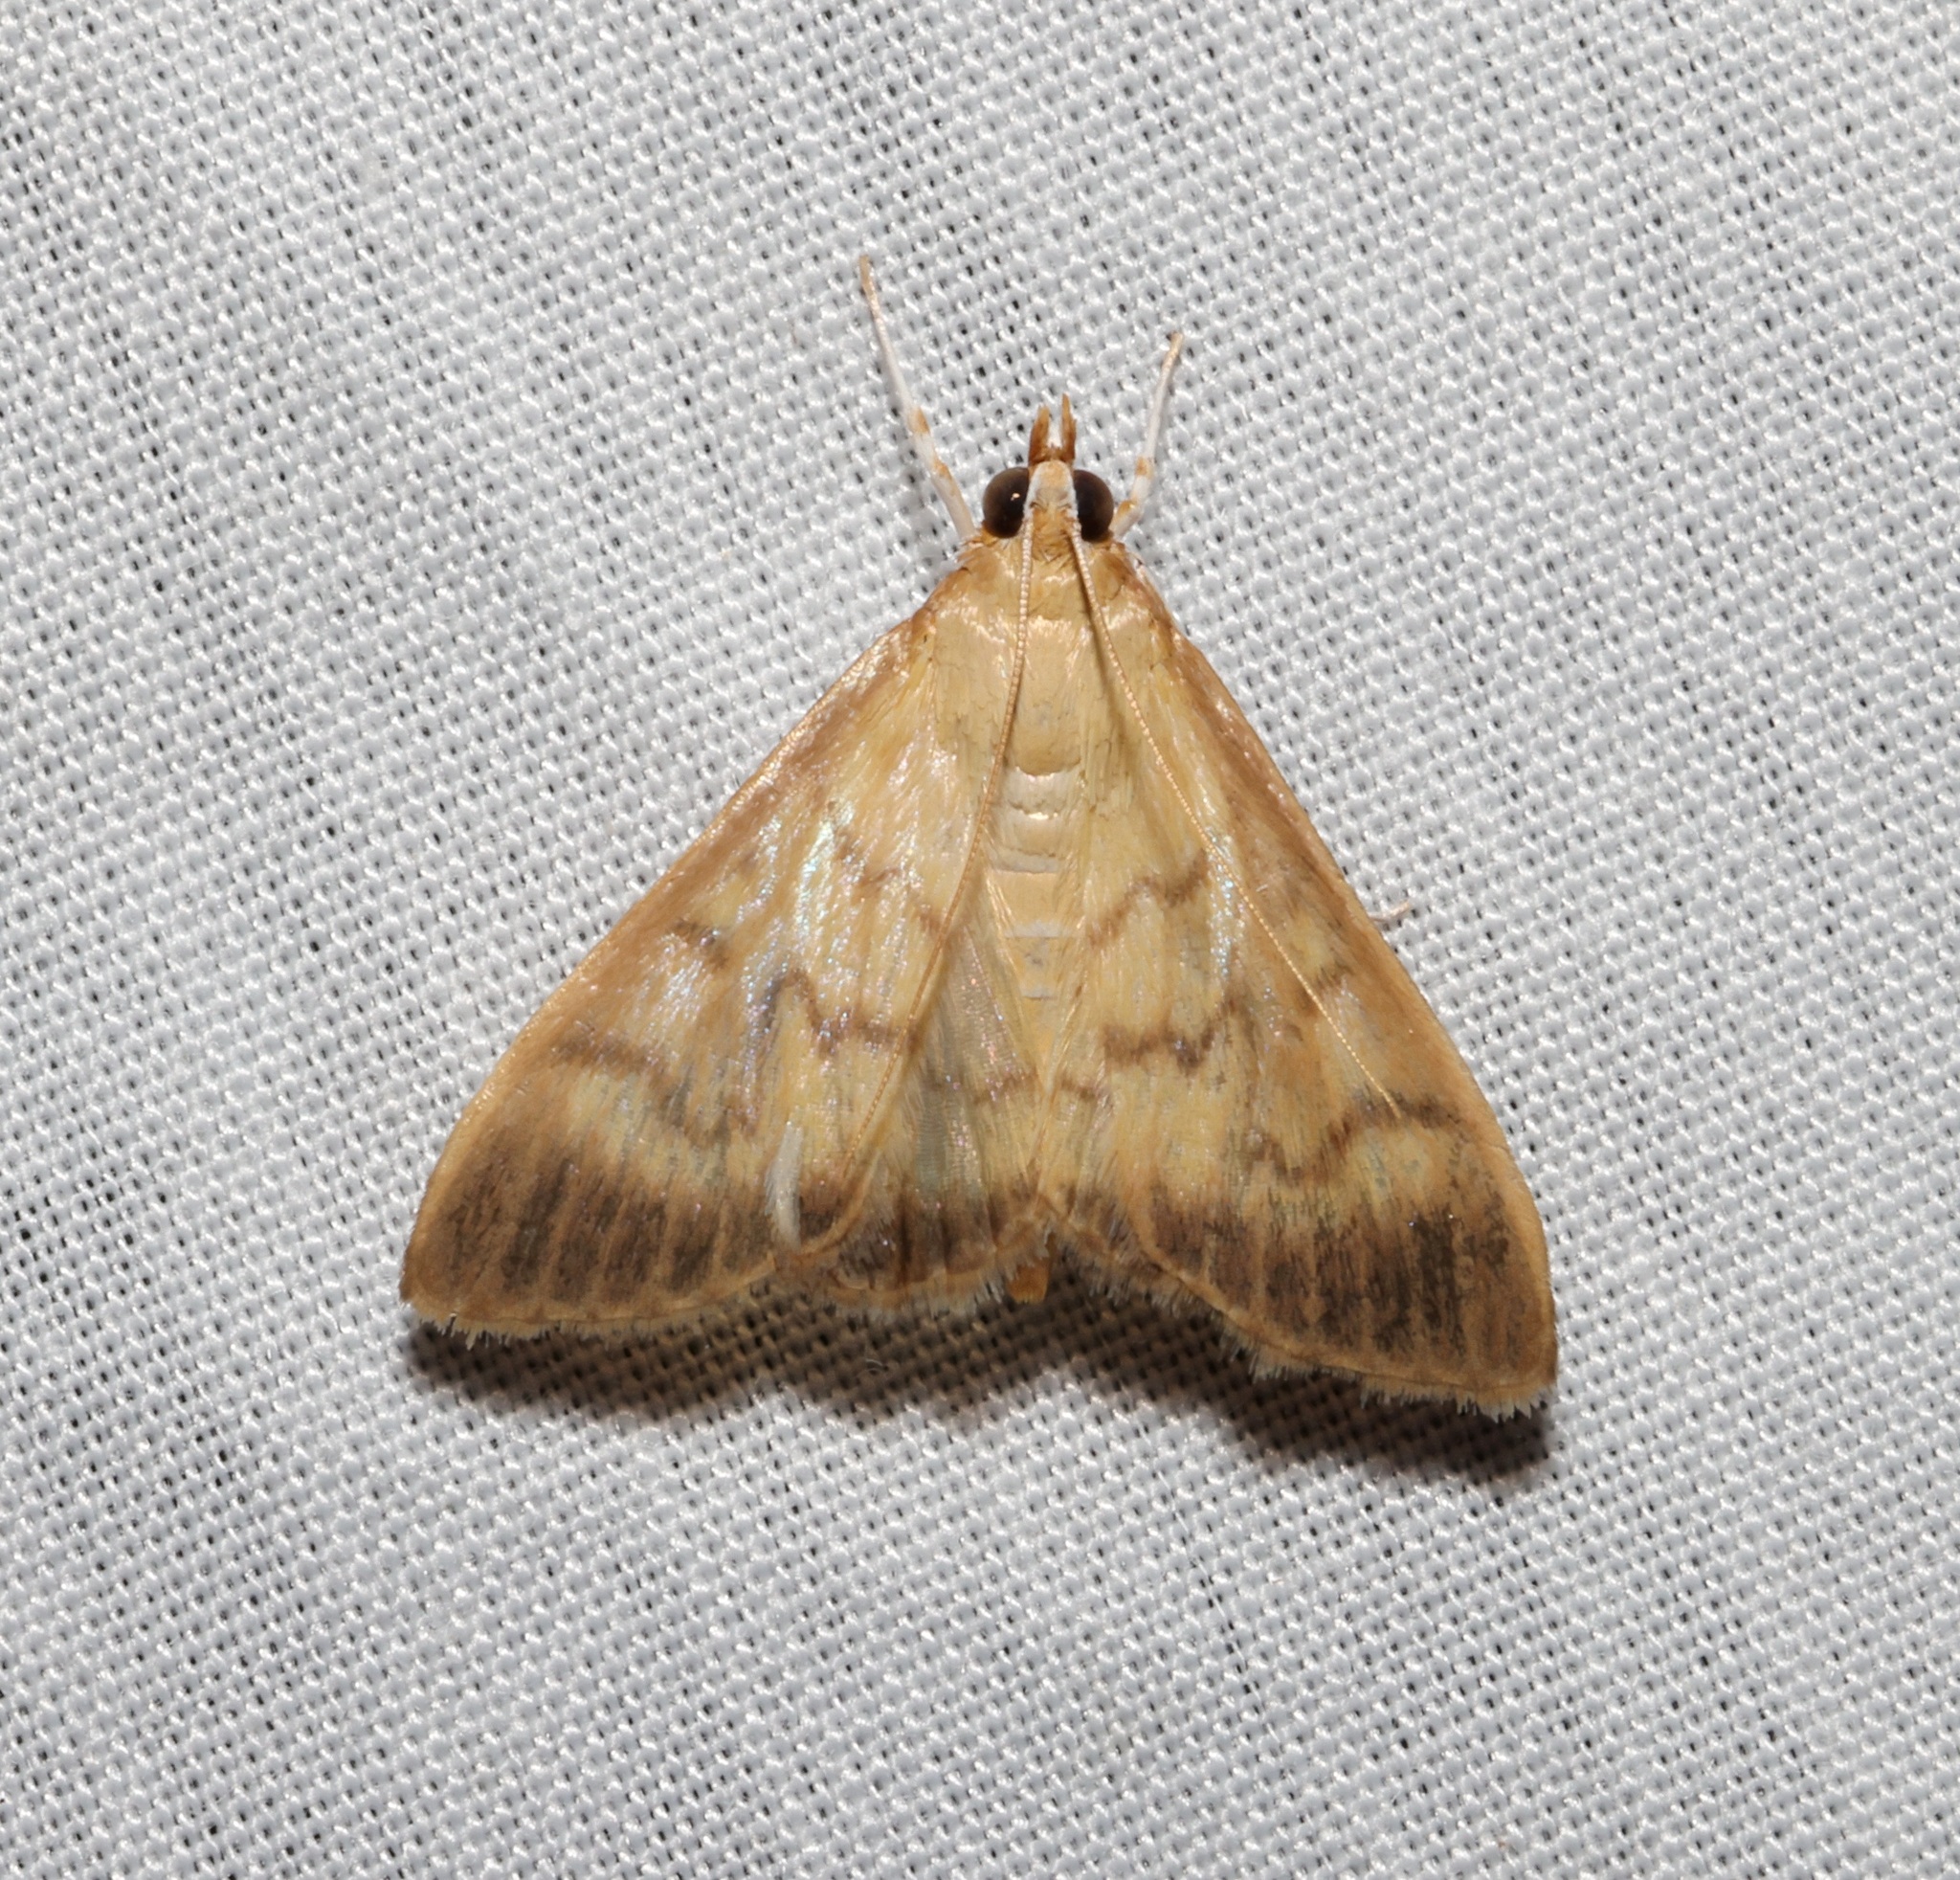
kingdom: Animalia
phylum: Arthropoda
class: Insecta
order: Lepidoptera
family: Crambidae
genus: Crypsiptya
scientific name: Crypsiptya coclesalis
